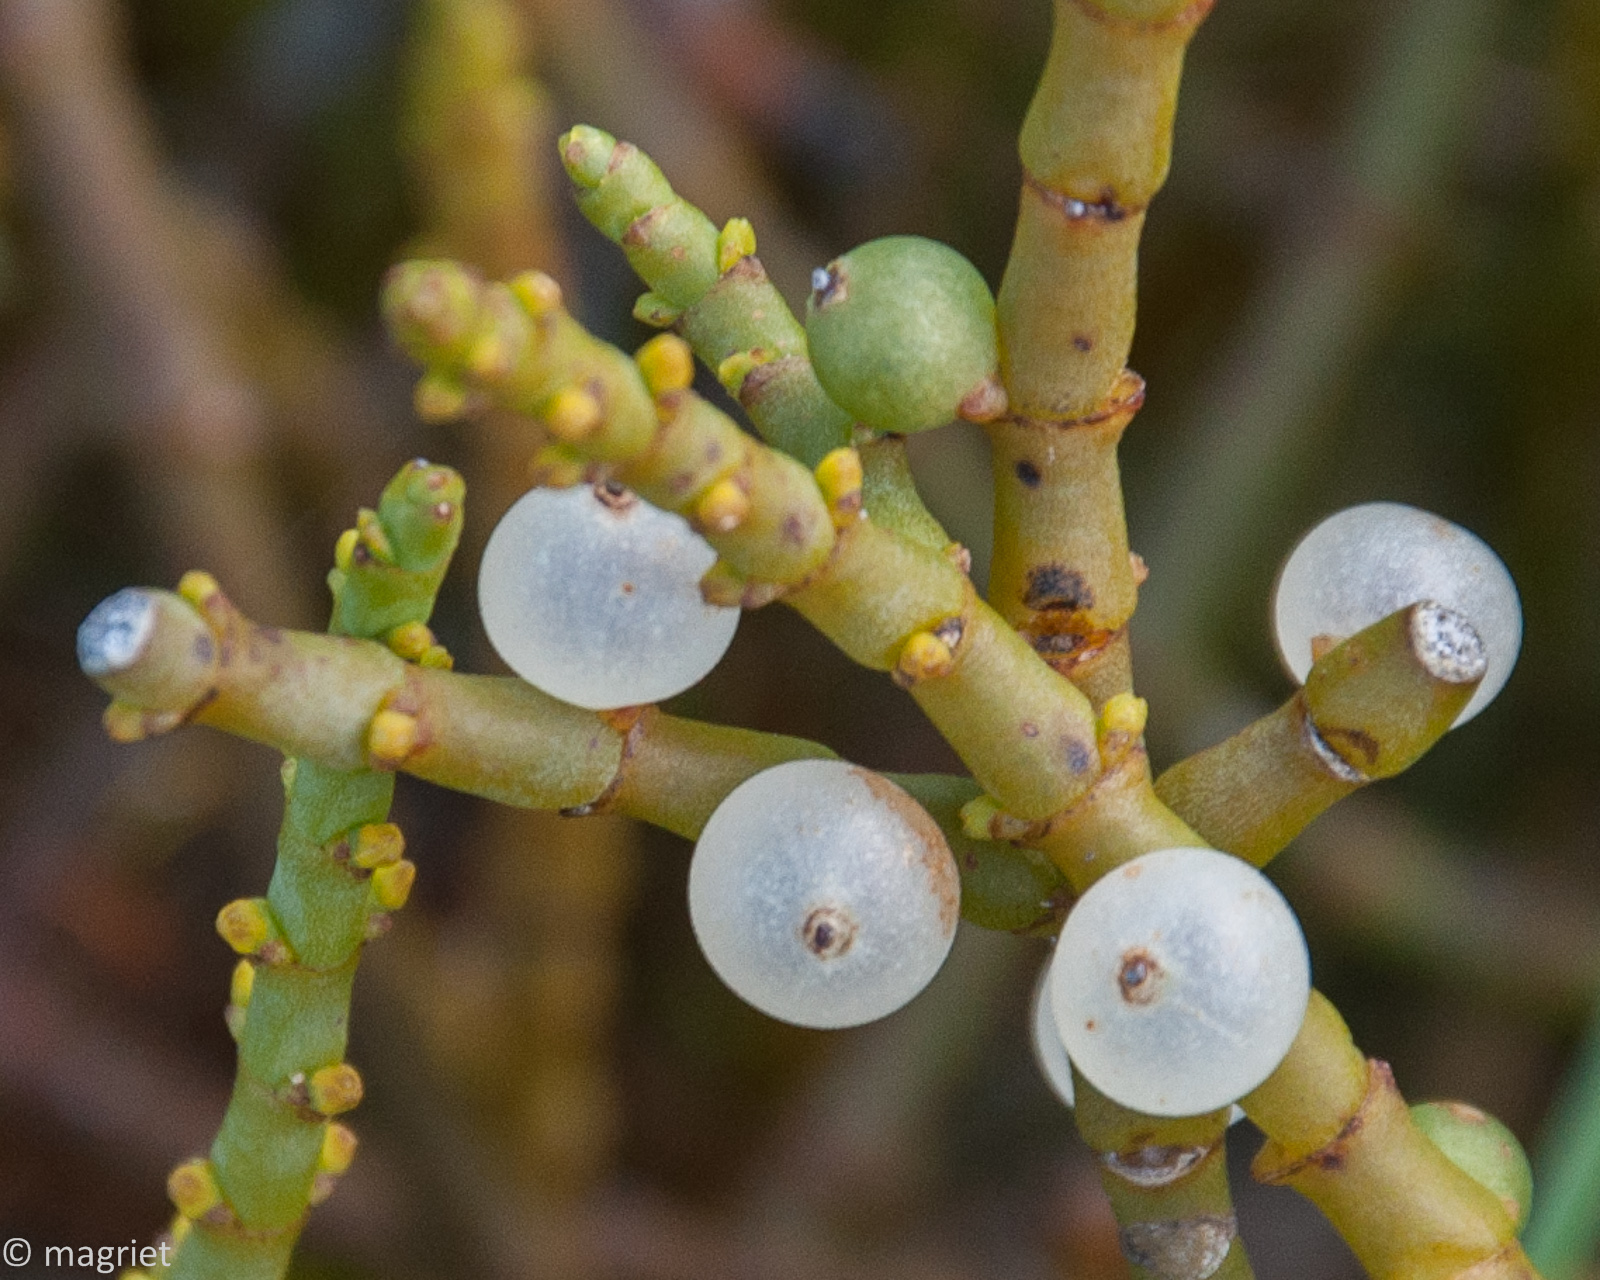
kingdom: Plantae
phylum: Tracheophyta
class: Magnoliopsida
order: Santalales
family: Viscaceae
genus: Viscum
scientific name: Viscum capense
